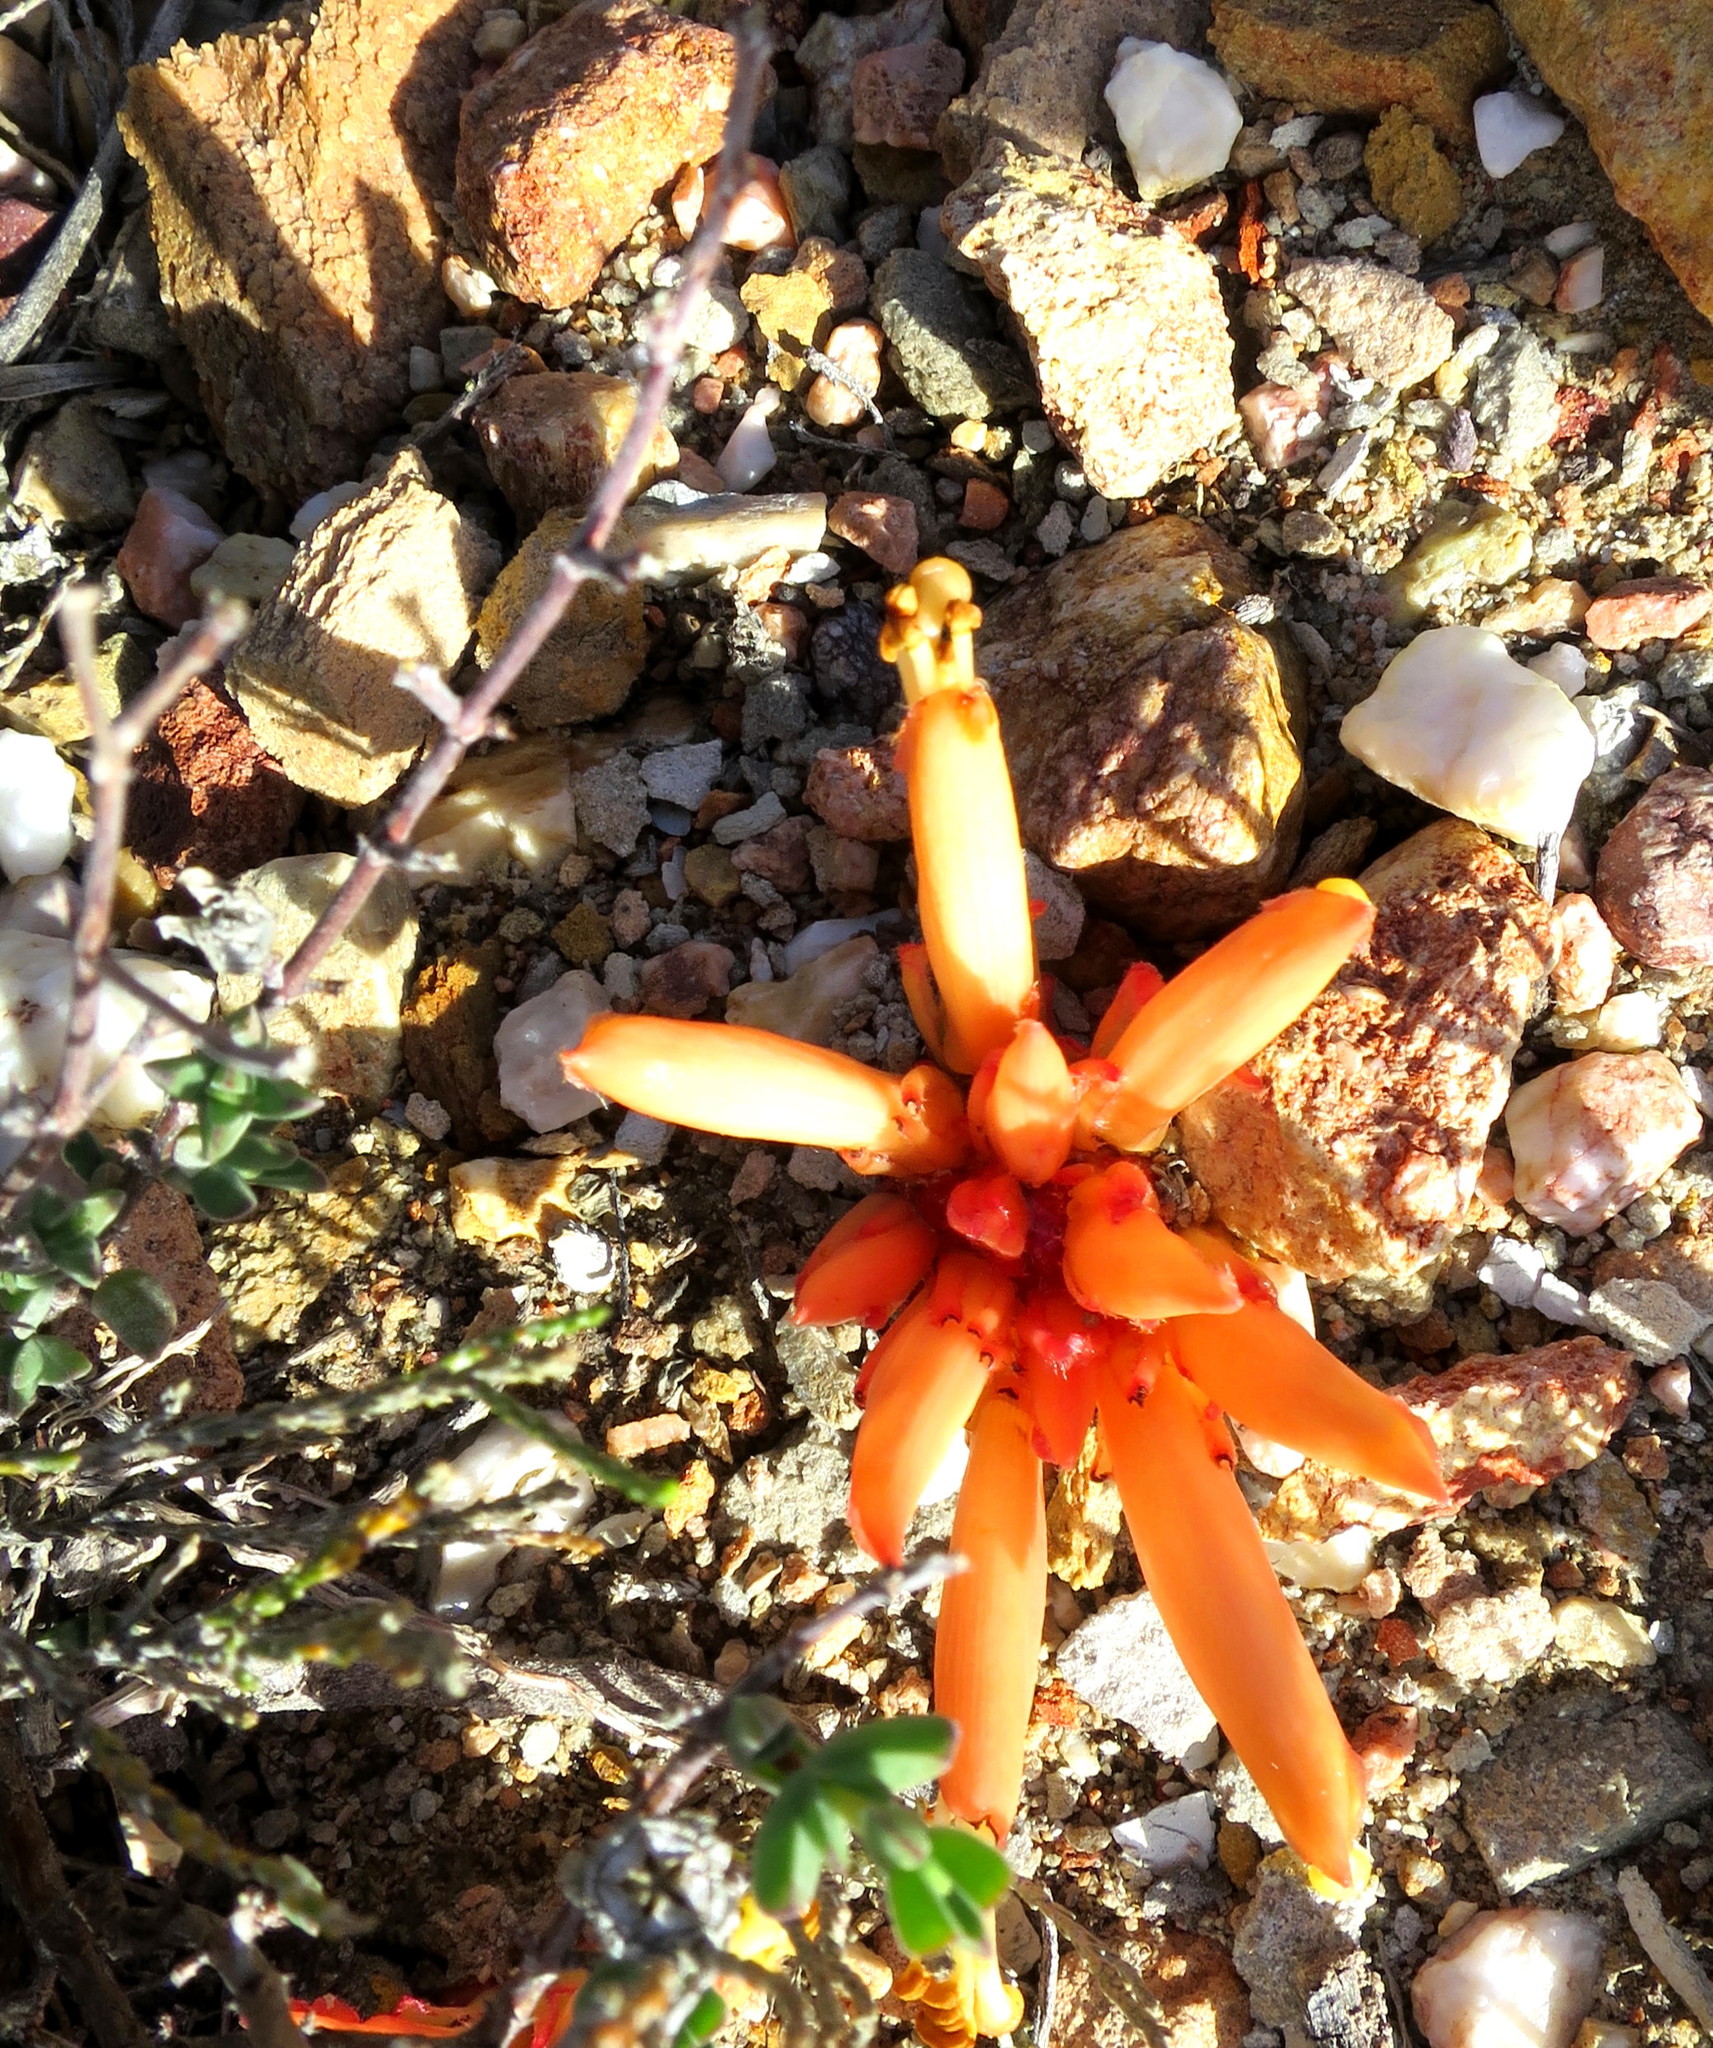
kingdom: Plantae
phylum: Tracheophyta
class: Magnoliopsida
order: Lamiales
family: Orobanchaceae
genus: Hyobanche
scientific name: Hyobanche glabrata
